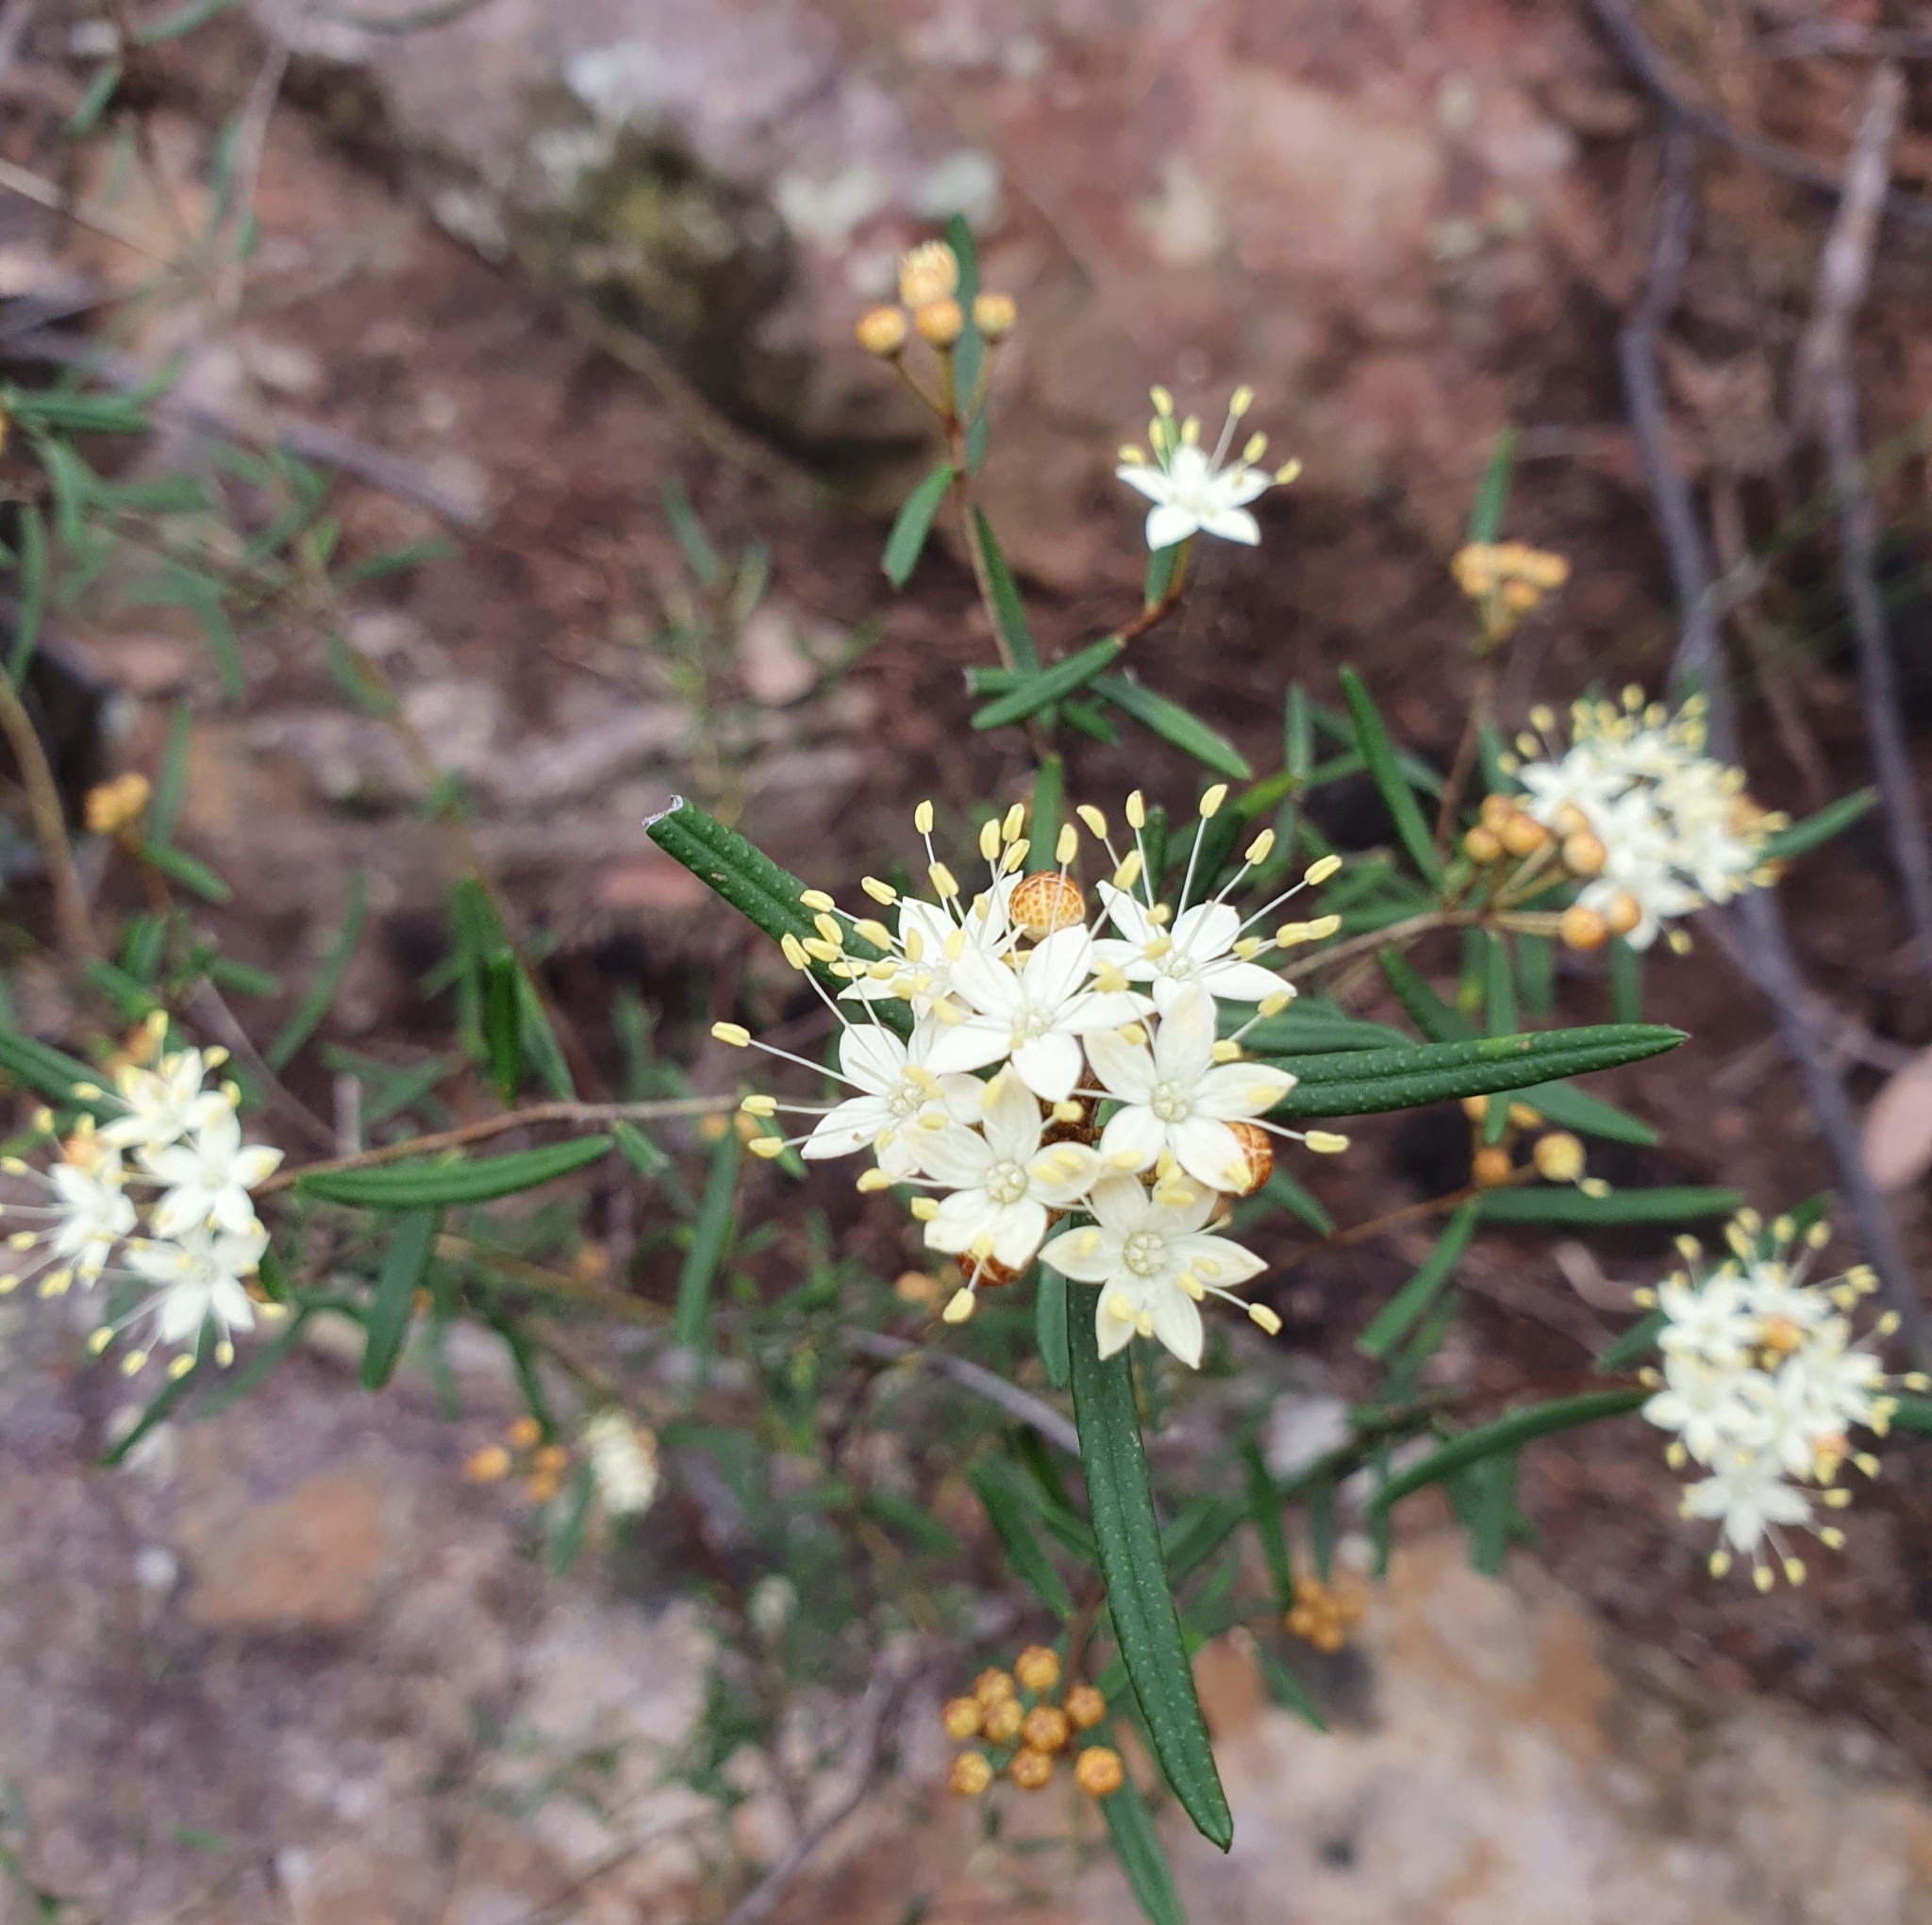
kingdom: Plantae
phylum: Tracheophyta
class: Magnoliopsida
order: Sapindales
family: Rutaceae
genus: Phebalium
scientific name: Phebalium squamulosum
